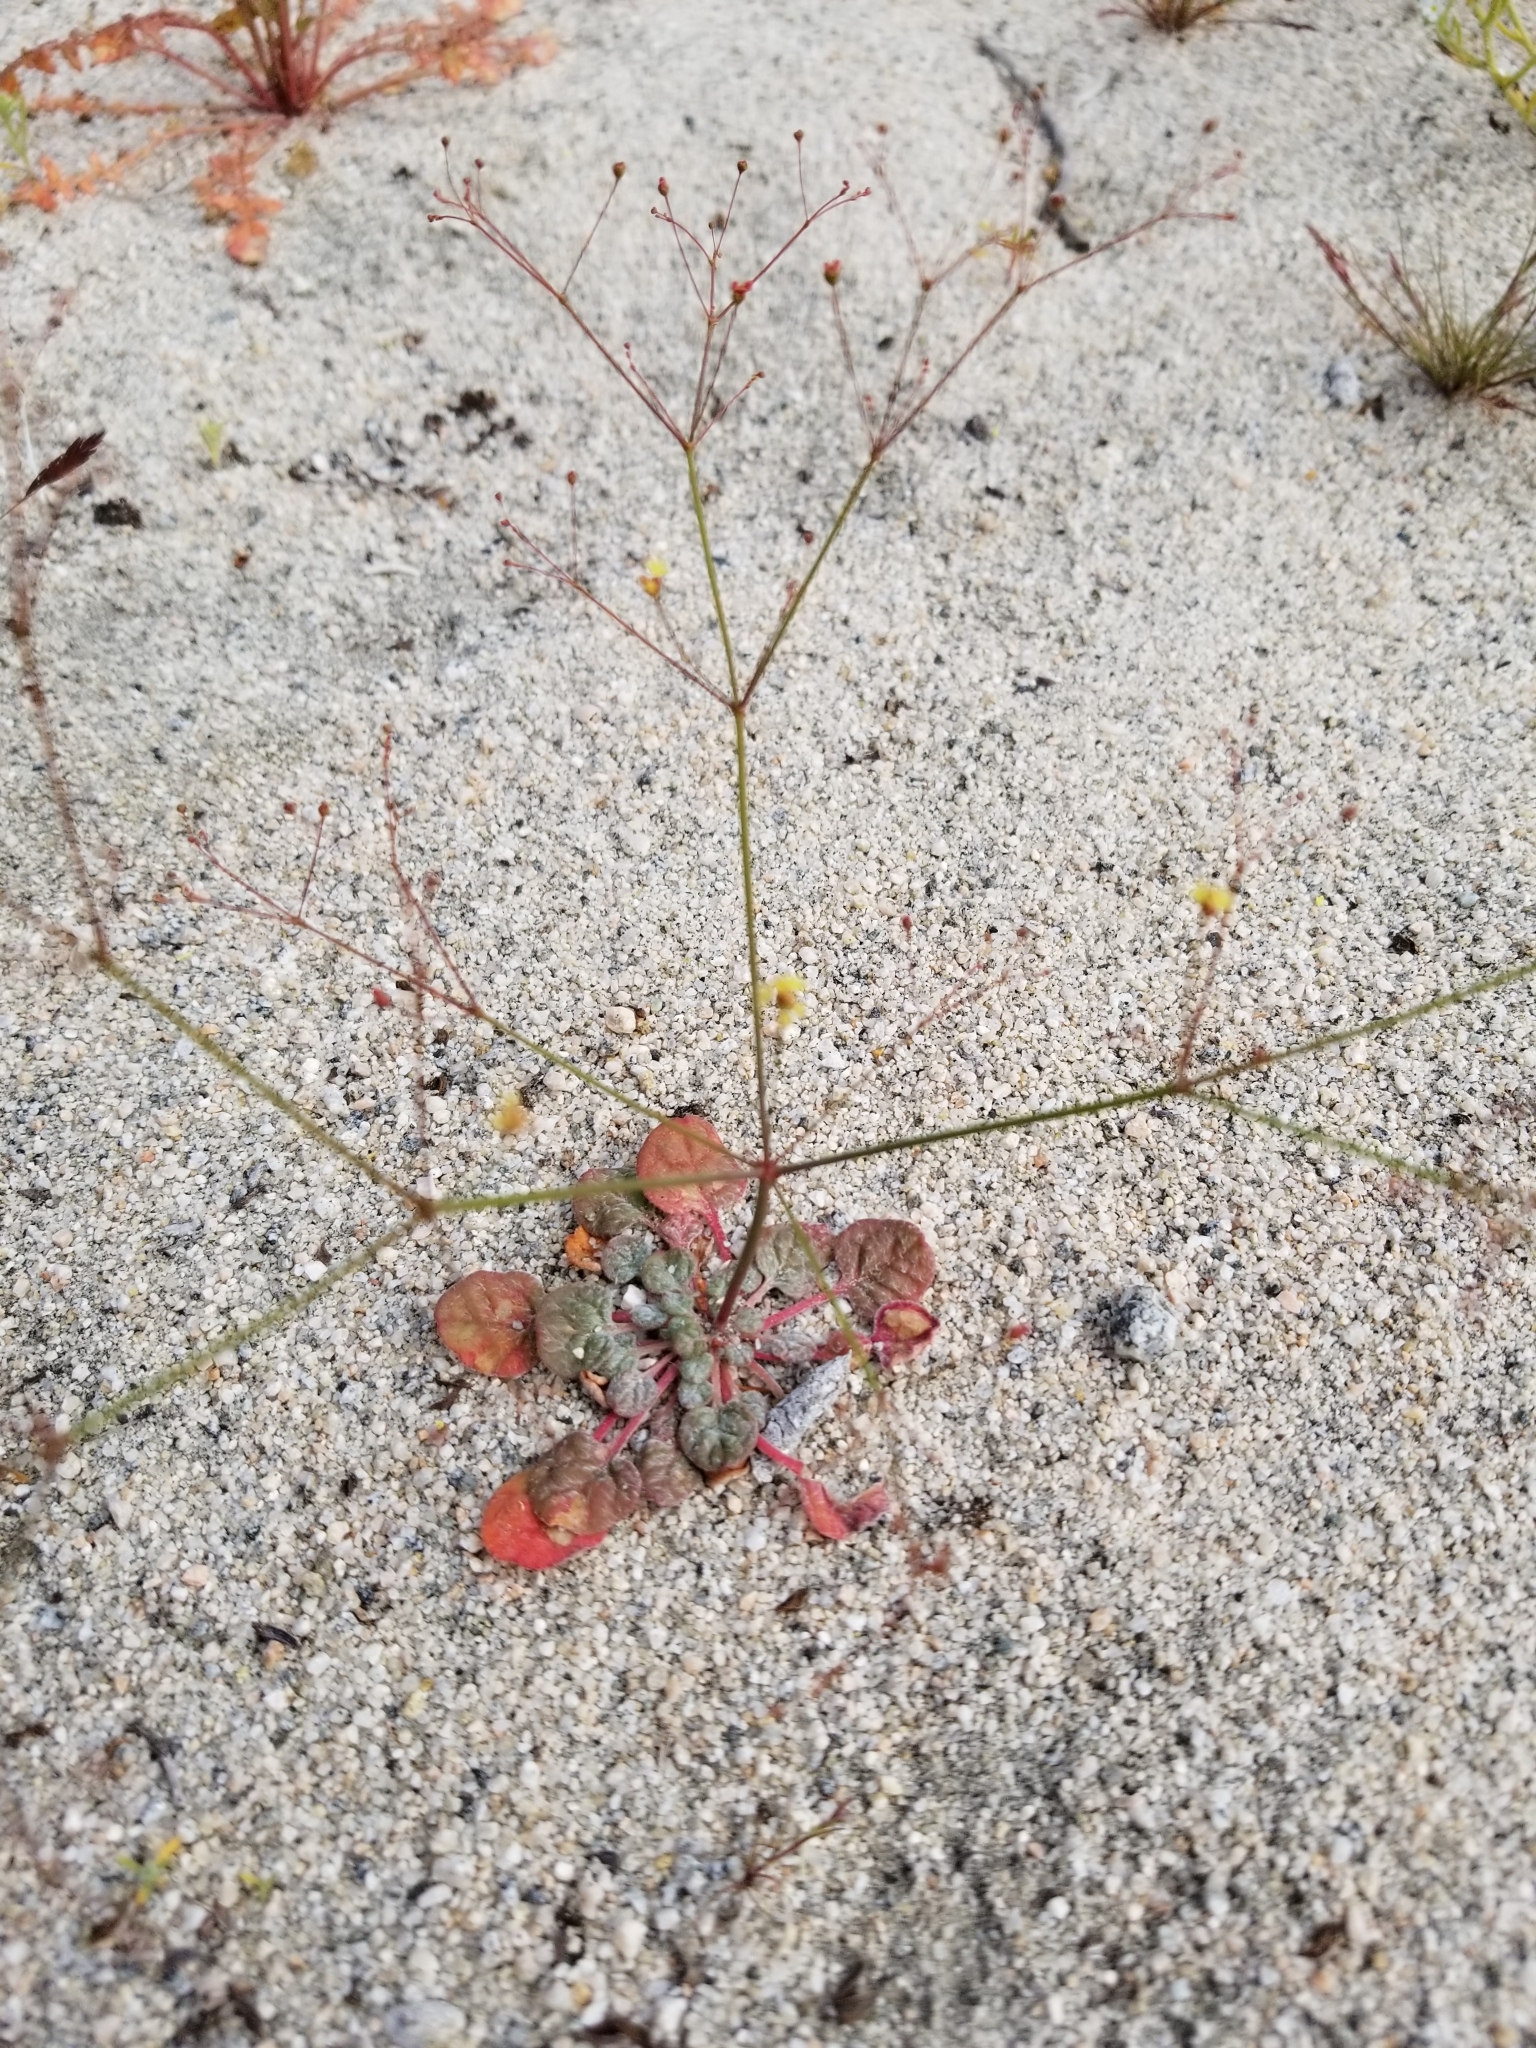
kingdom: Plantae
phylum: Tracheophyta
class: Magnoliopsida
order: Caryophyllales
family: Polygonaceae
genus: Eriogonum
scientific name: Eriogonum thomasii
